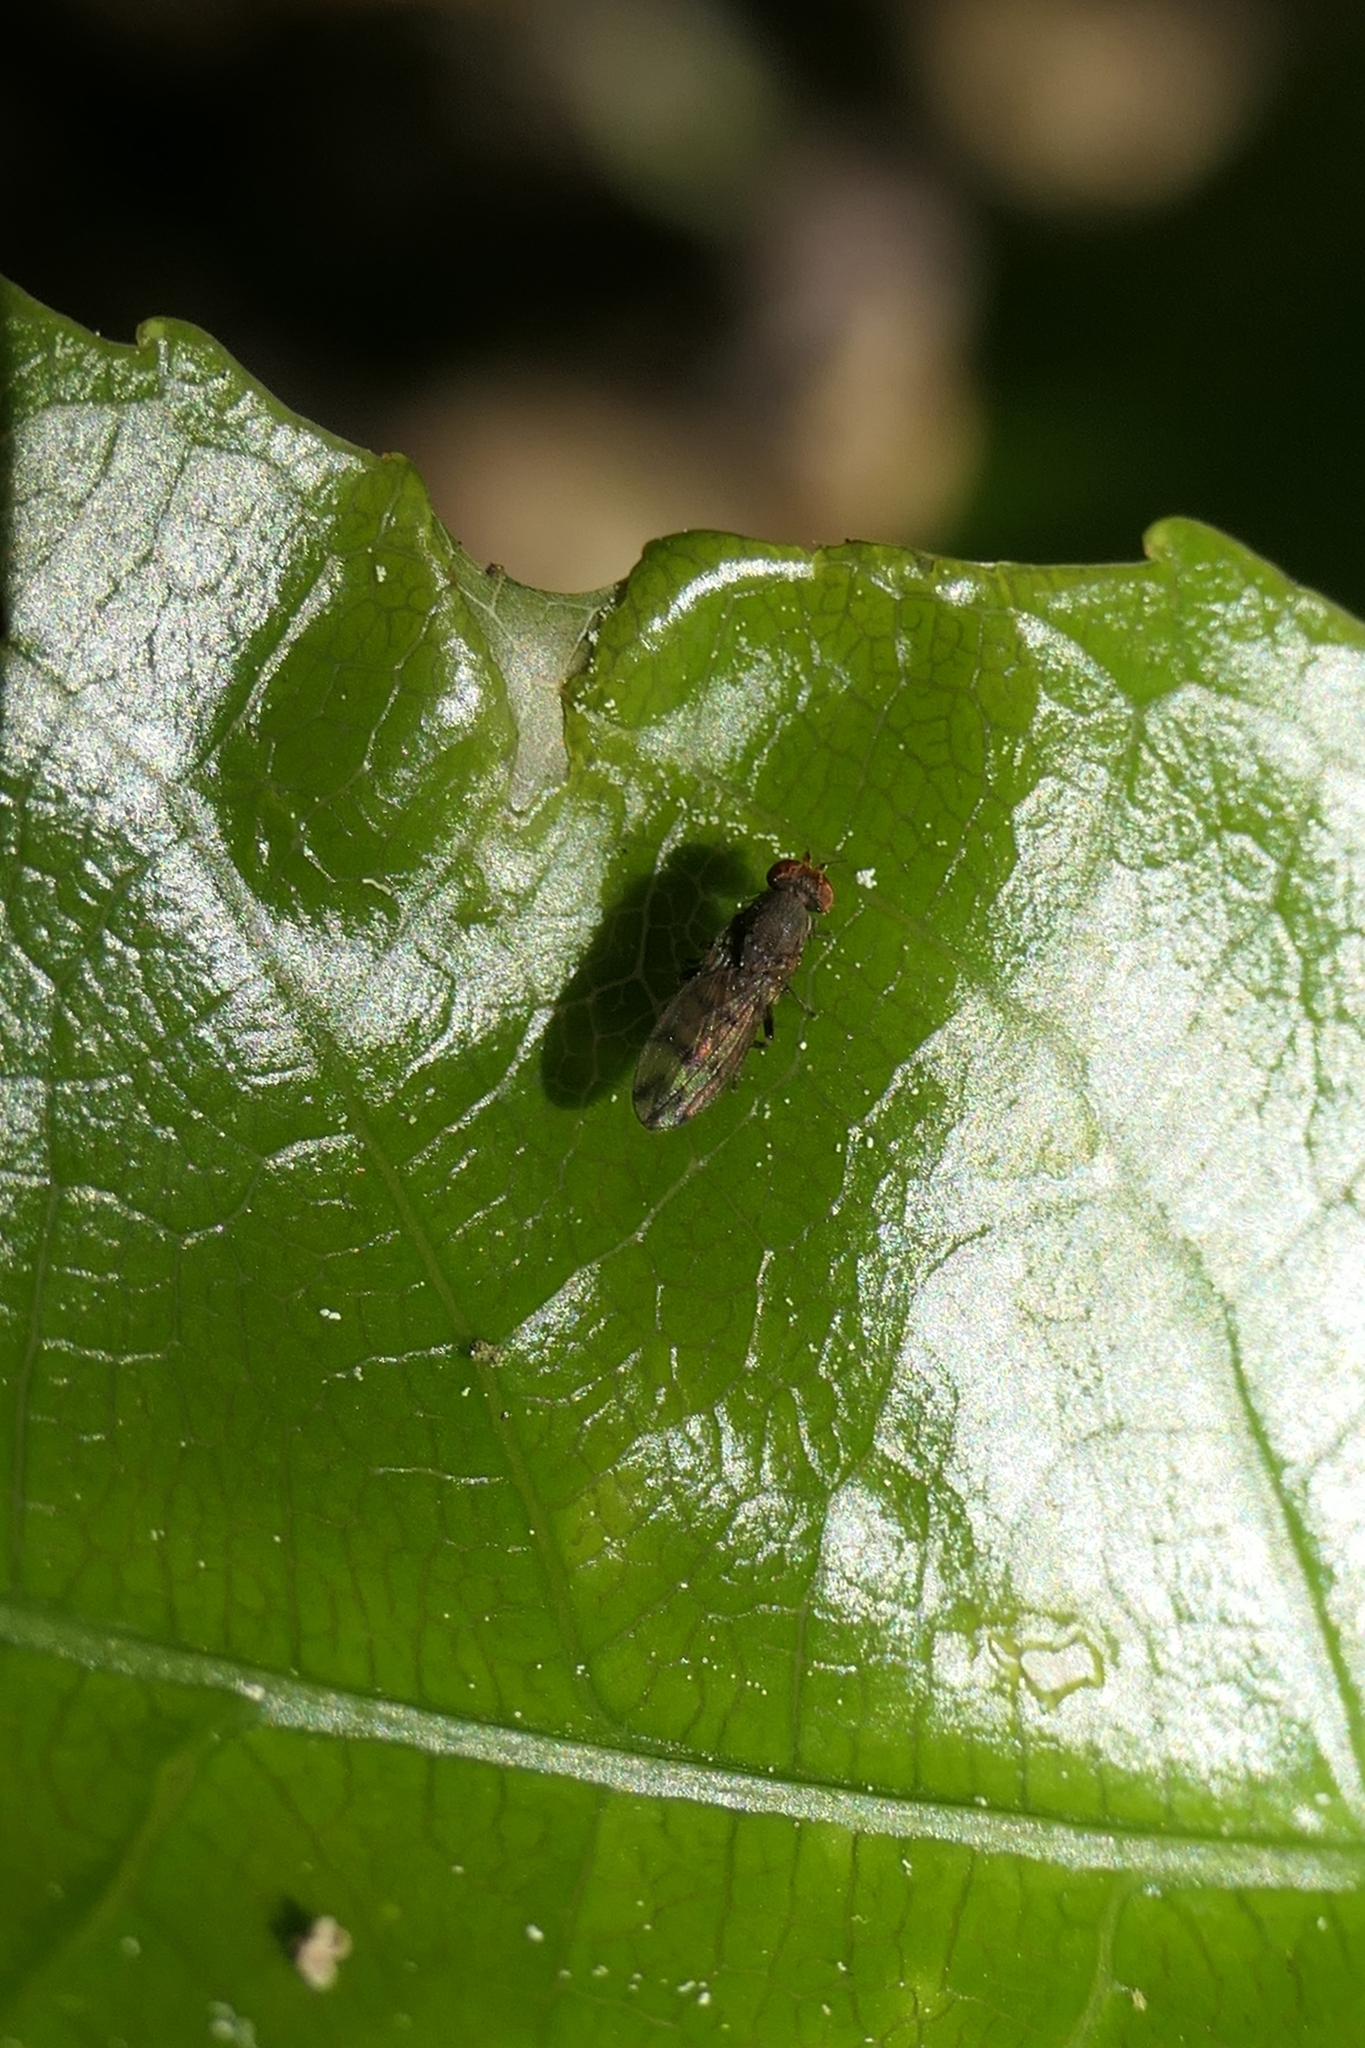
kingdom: Animalia
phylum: Arthropoda
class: Insecta
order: Diptera
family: Heleomyzidae
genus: Fenwickia
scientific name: Fenwickia hirsuta
